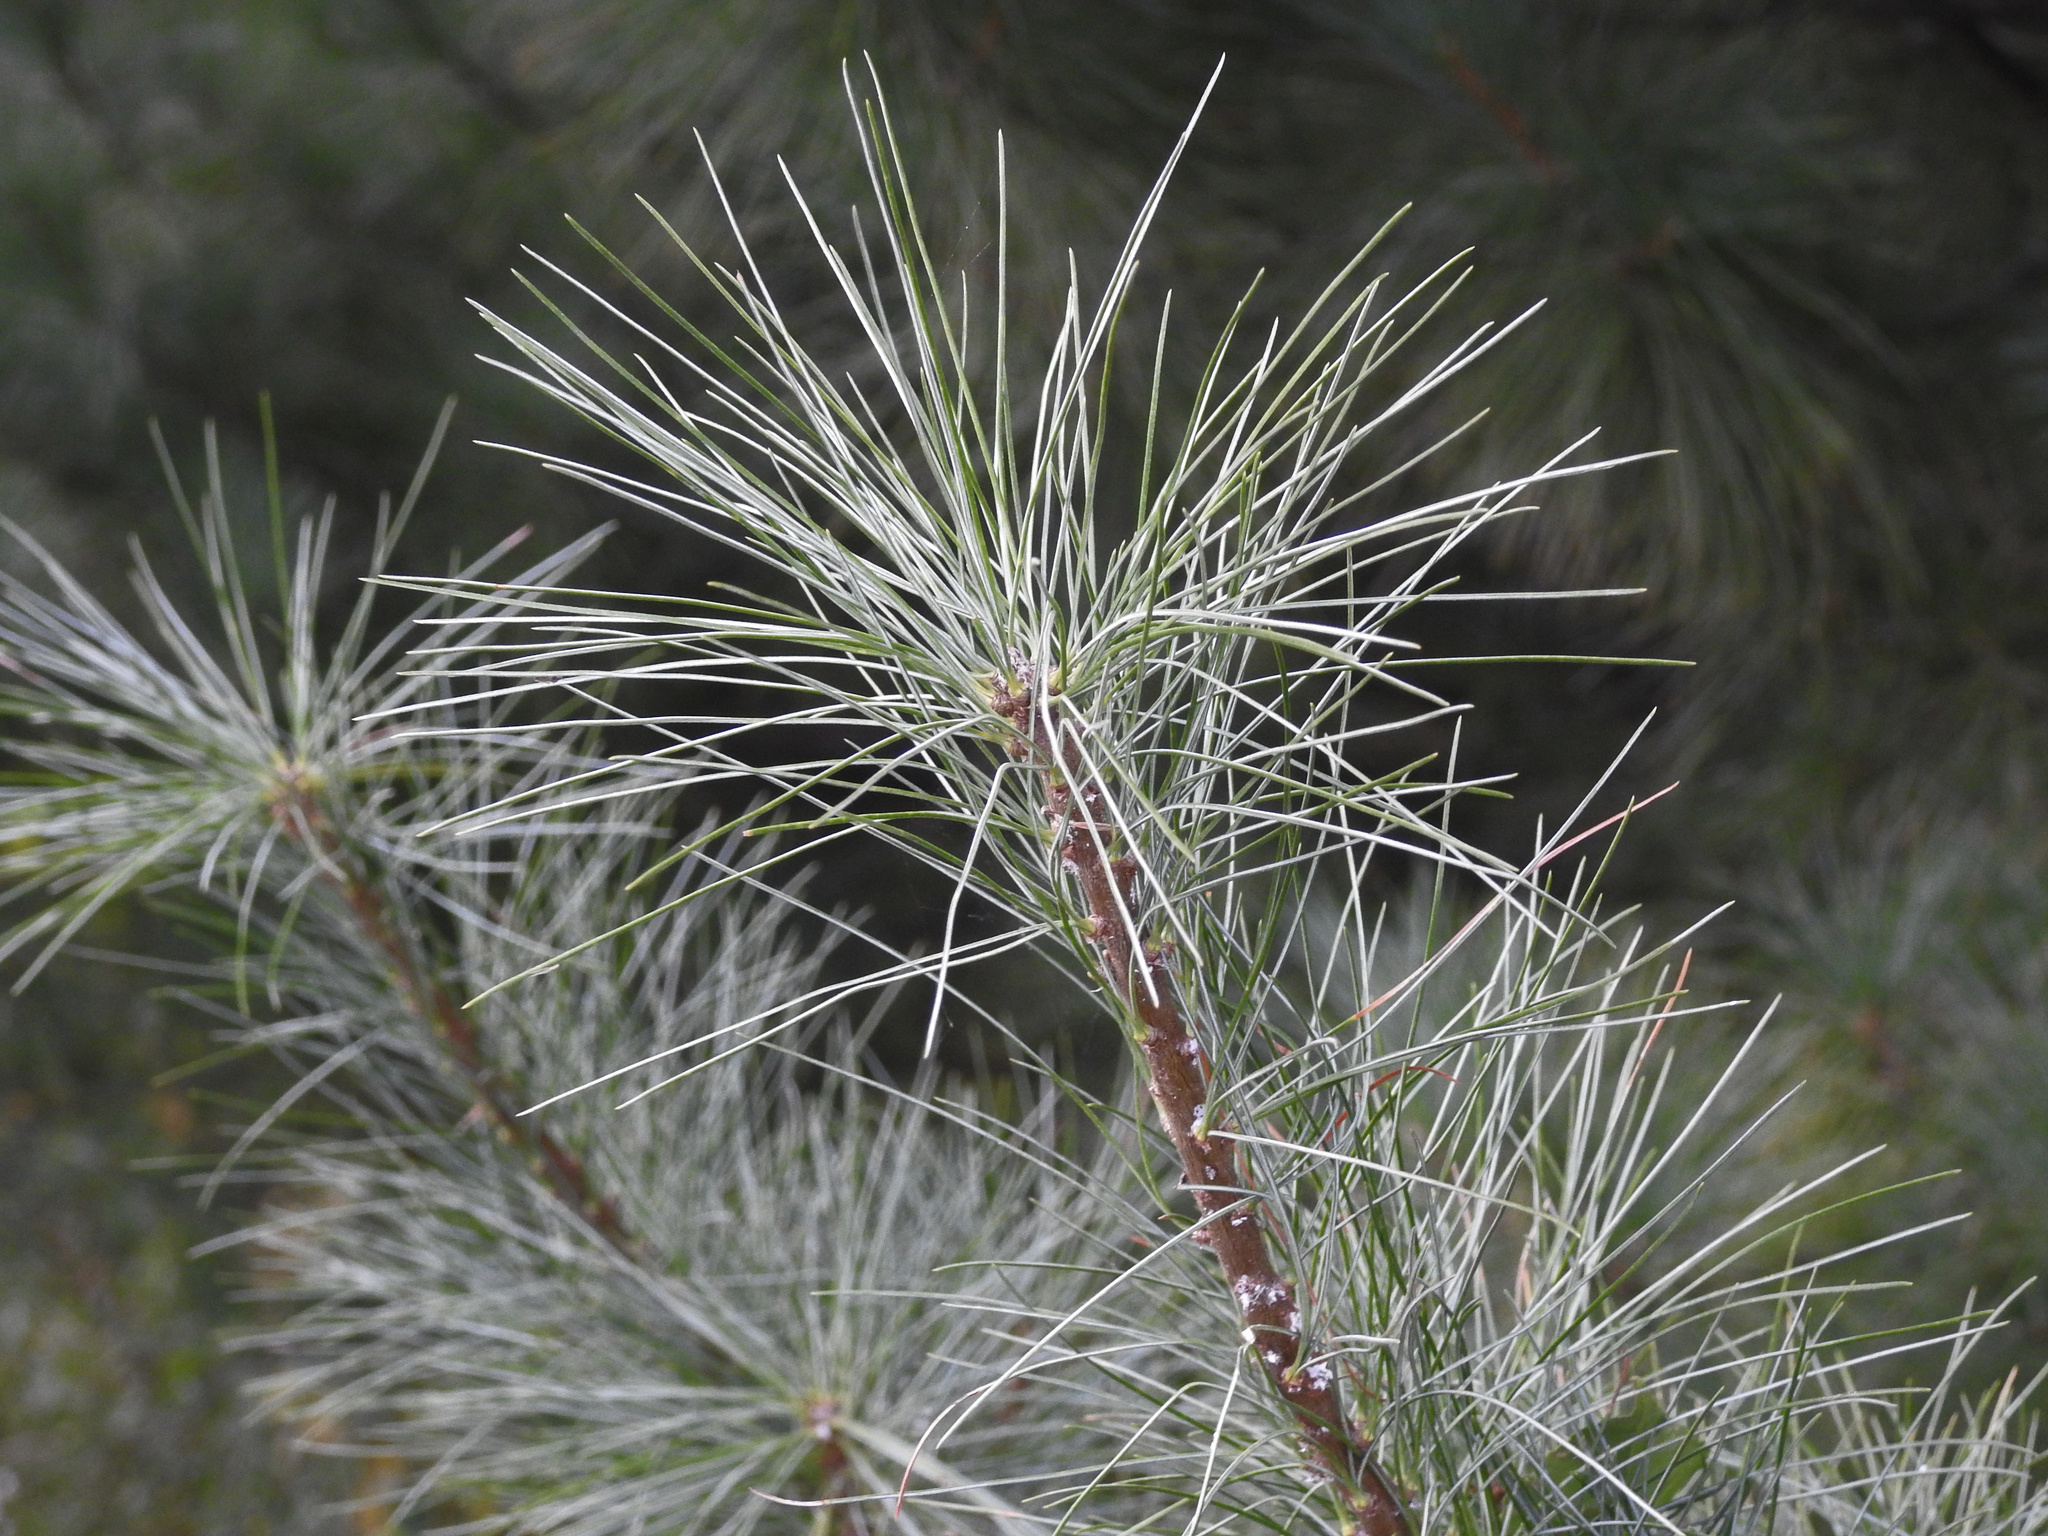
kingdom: Plantae
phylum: Tracheophyta
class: Pinopsida
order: Pinales
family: Pinaceae
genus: Pinus
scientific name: Pinus strobus
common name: Weymouth pine
